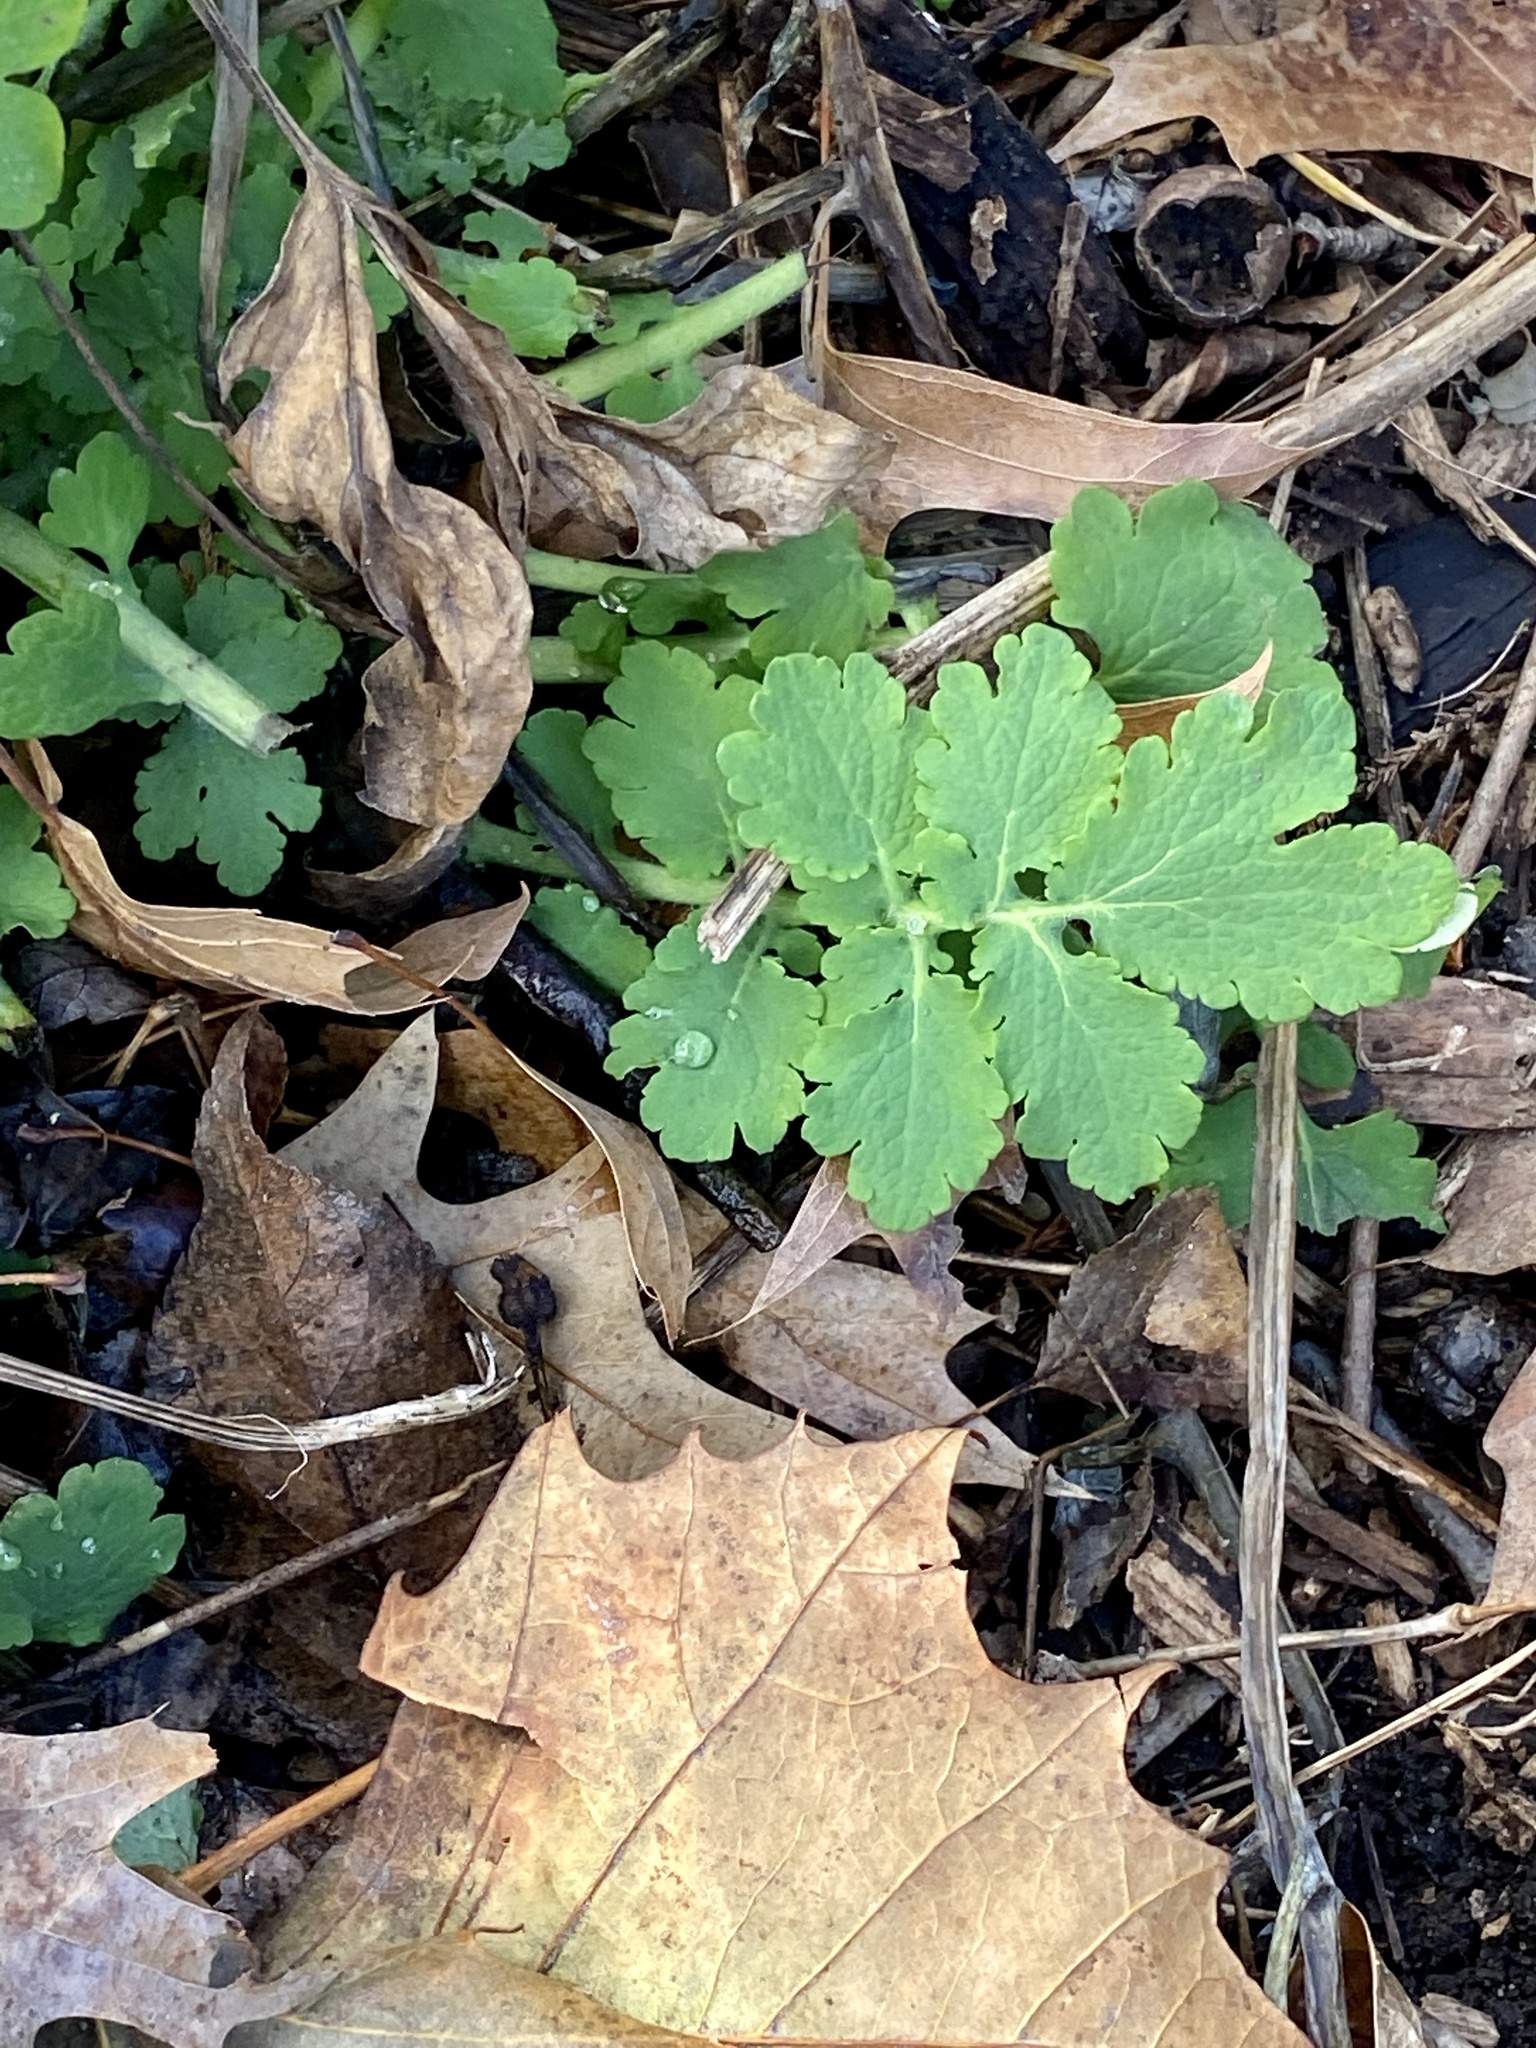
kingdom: Plantae
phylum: Tracheophyta
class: Magnoliopsida
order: Ranunculales
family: Papaveraceae
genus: Chelidonium
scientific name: Chelidonium majus
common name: Greater celandine
